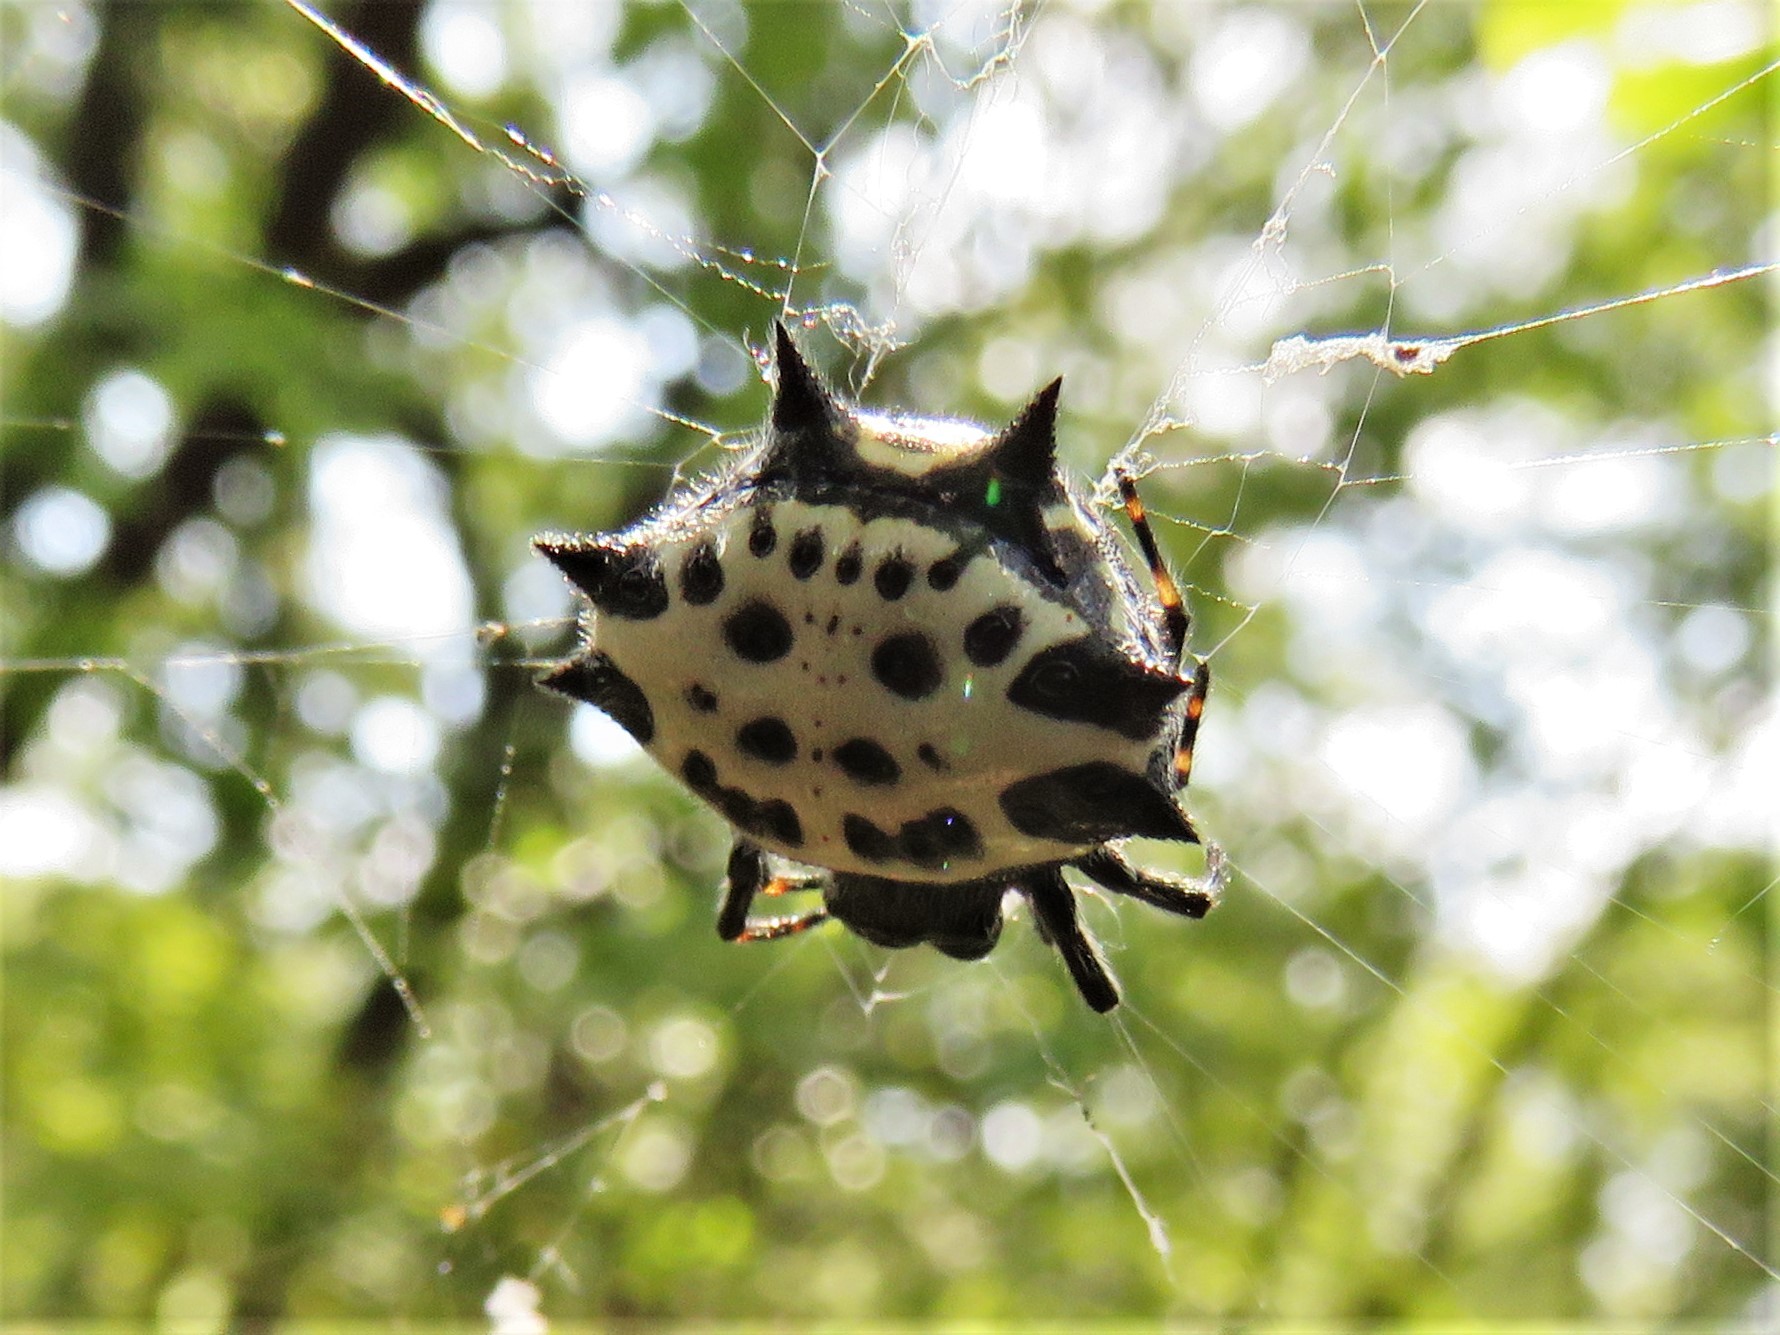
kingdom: Animalia
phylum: Arthropoda
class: Arachnida
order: Araneae
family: Araneidae
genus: Gasteracantha
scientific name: Gasteracantha cancriformis
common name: Orb weavers
